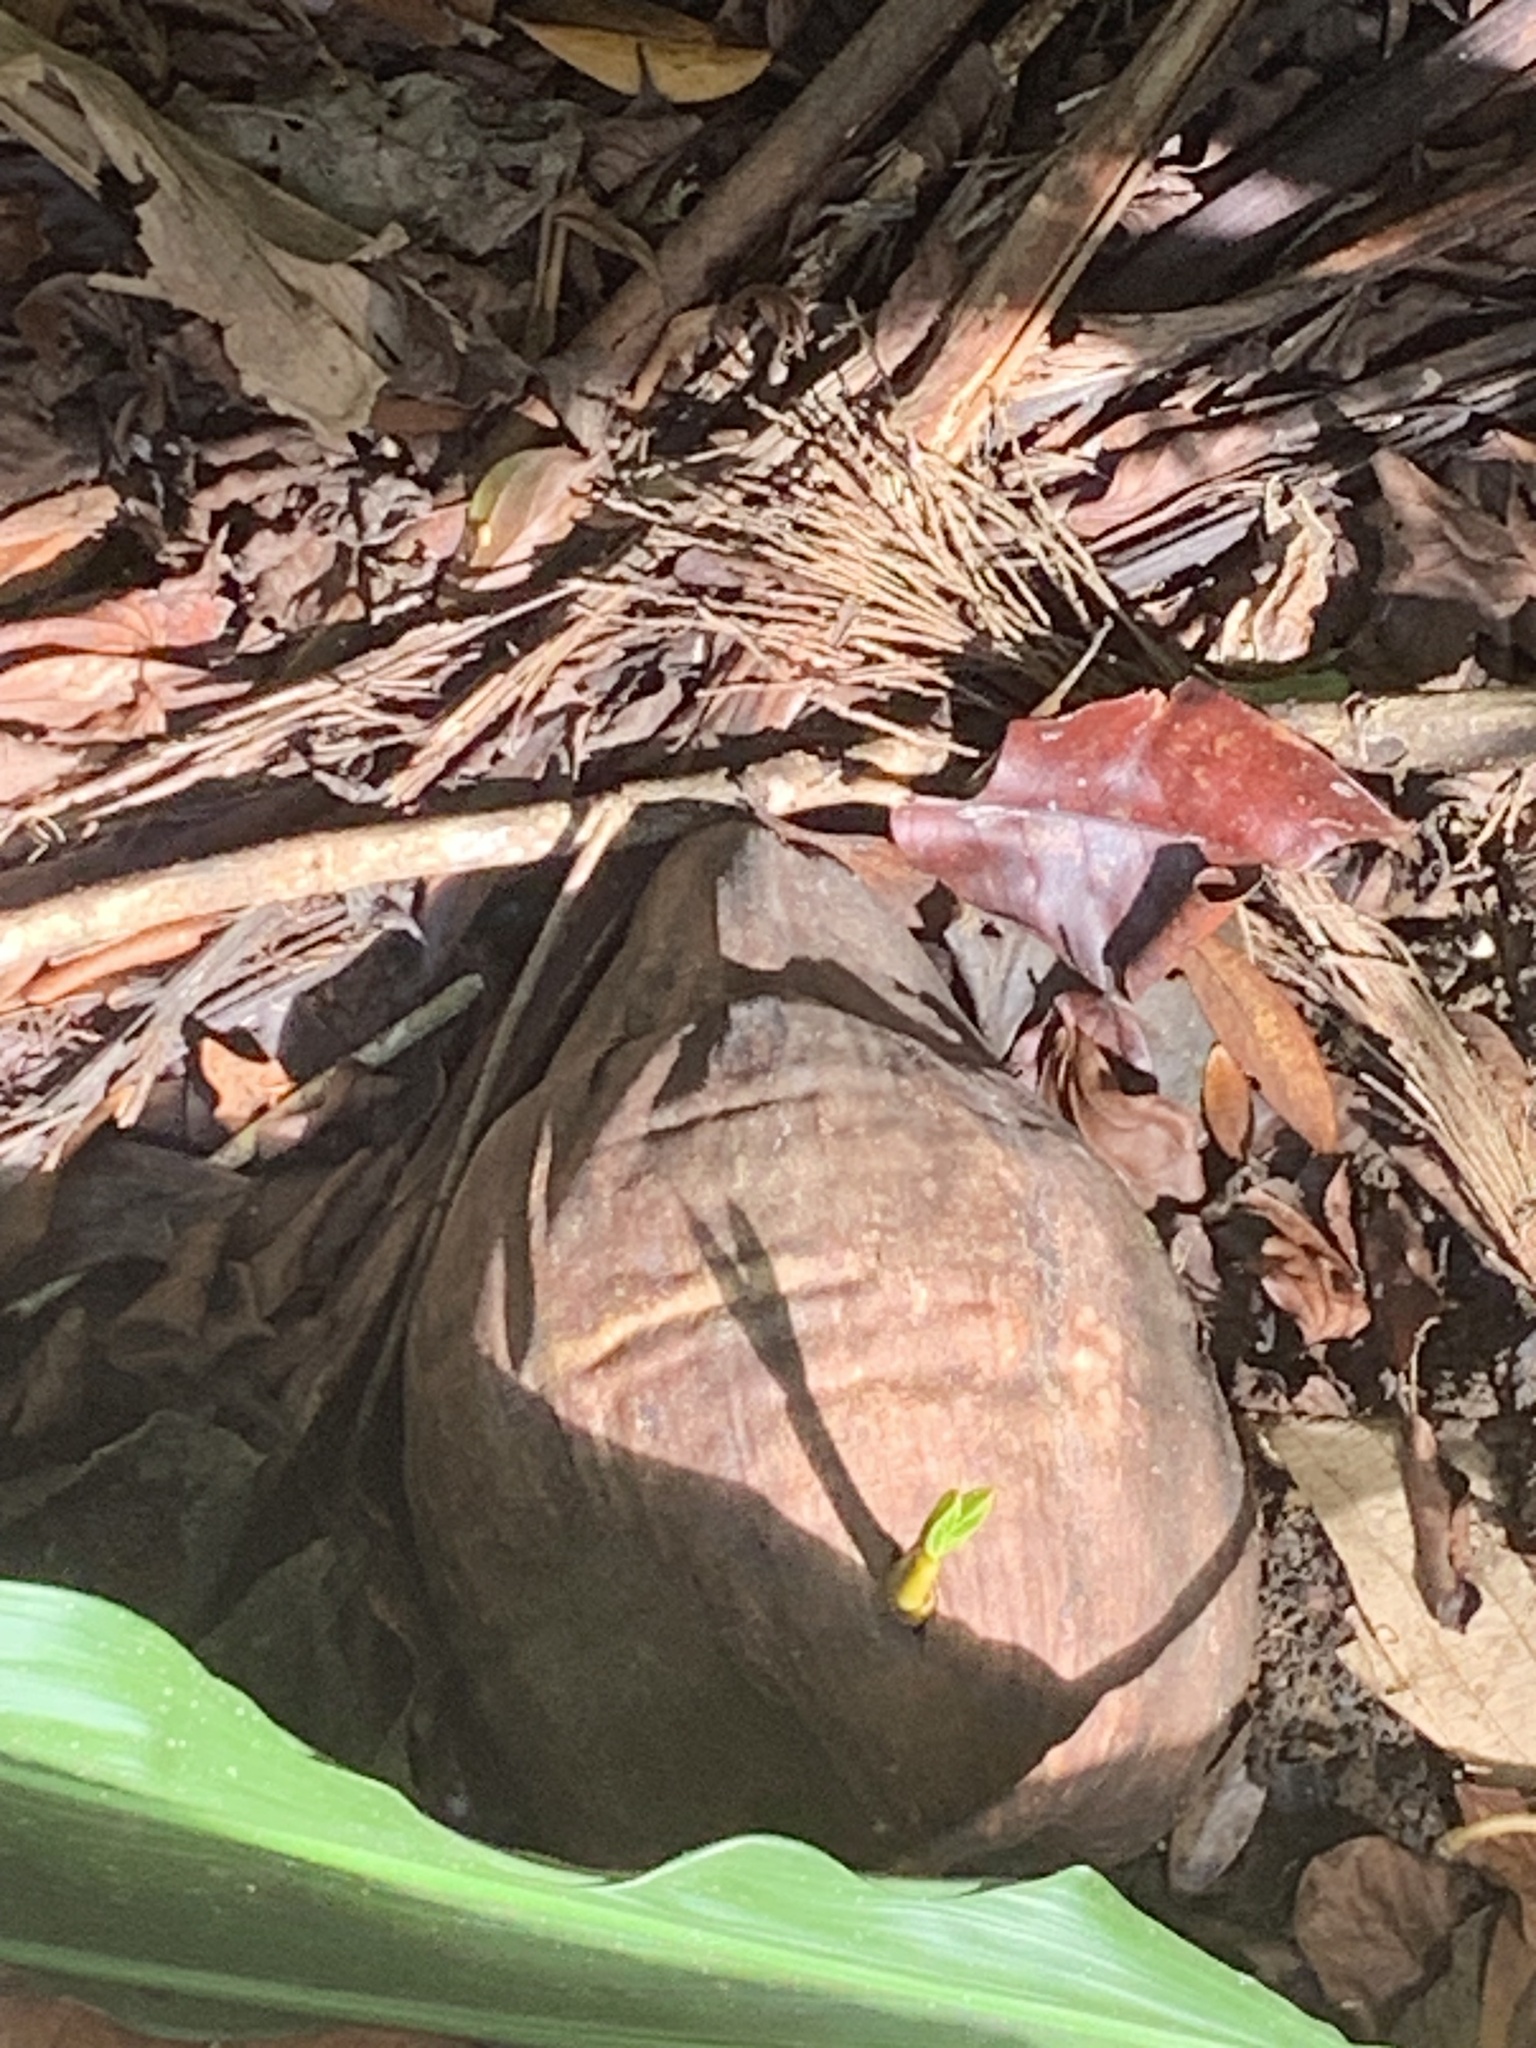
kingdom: Plantae
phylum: Tracheophyta
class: Liliopsida
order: Arecales
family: Arecaceae
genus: Cocos
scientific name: Cocos nucifera
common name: Coconut palm
